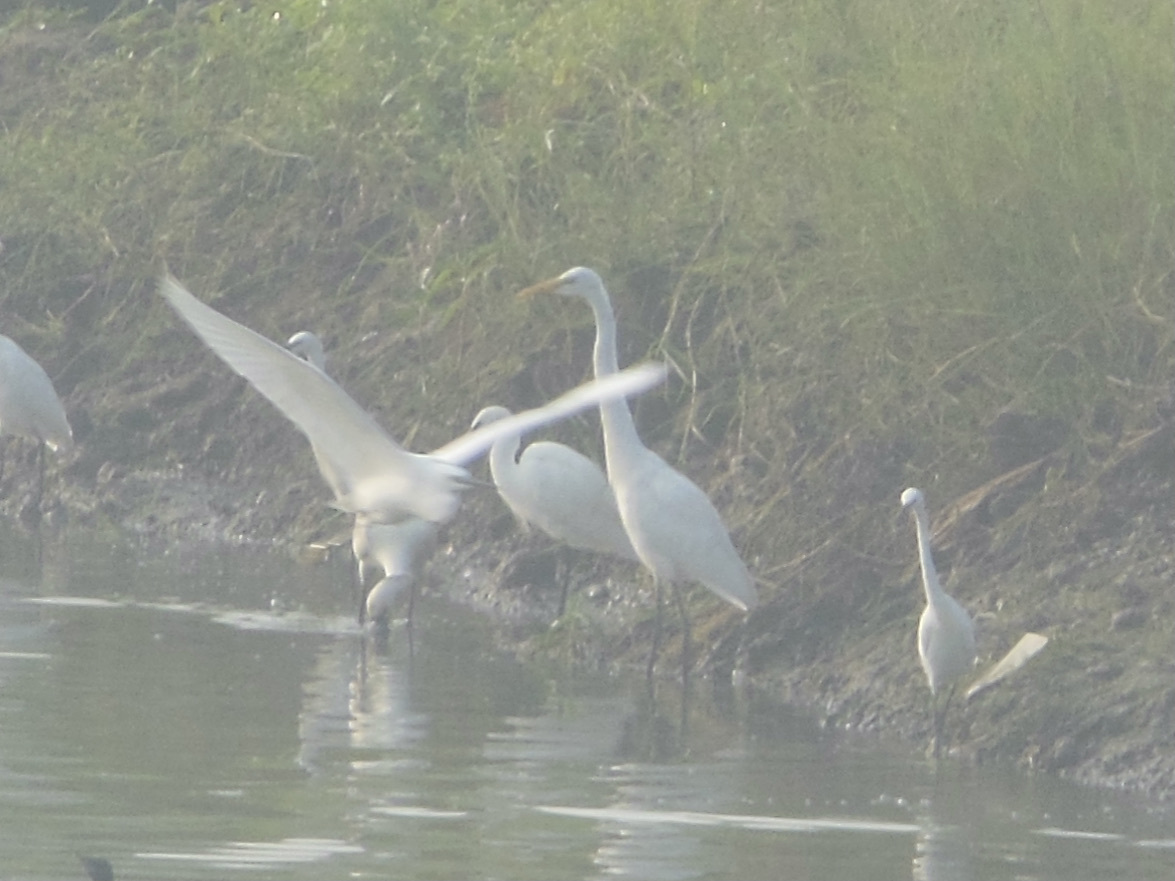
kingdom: Animalia
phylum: Chordata
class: Aves
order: Pelecaniformes
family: Ardeidae
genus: Ardea
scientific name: Ardea alba
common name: Great egret
